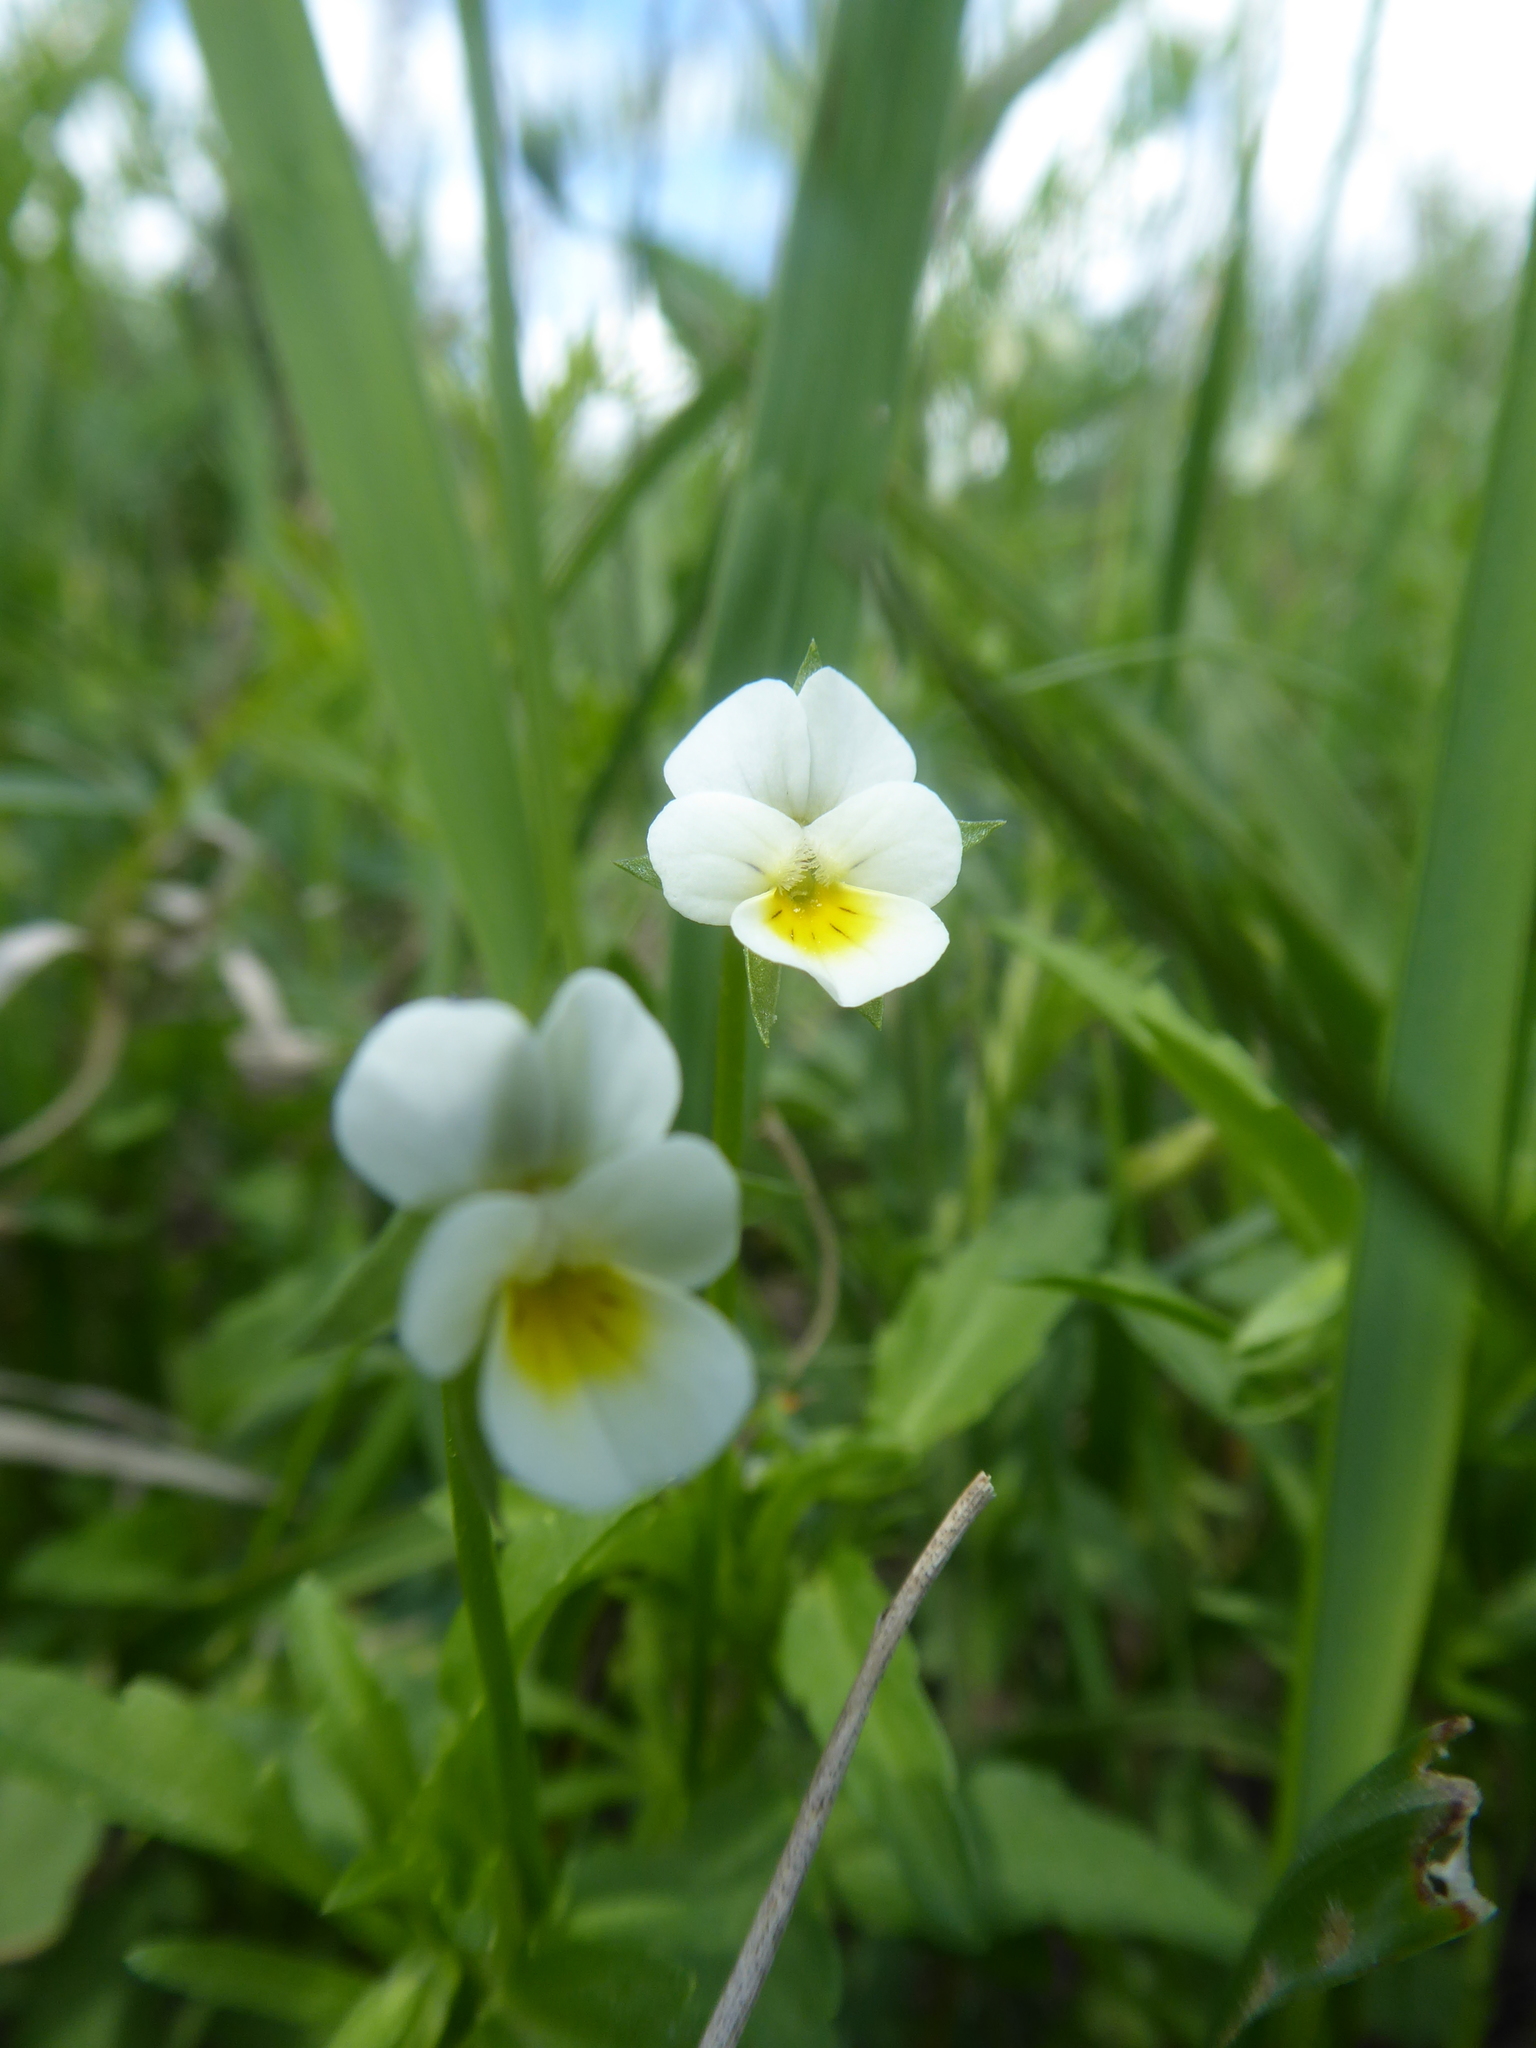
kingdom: Plantae
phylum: Tracheophyta
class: Magnoliopsida
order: Malpighiales
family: Violaceae
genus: Viola
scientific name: Viola arvensis
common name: Field pansy
